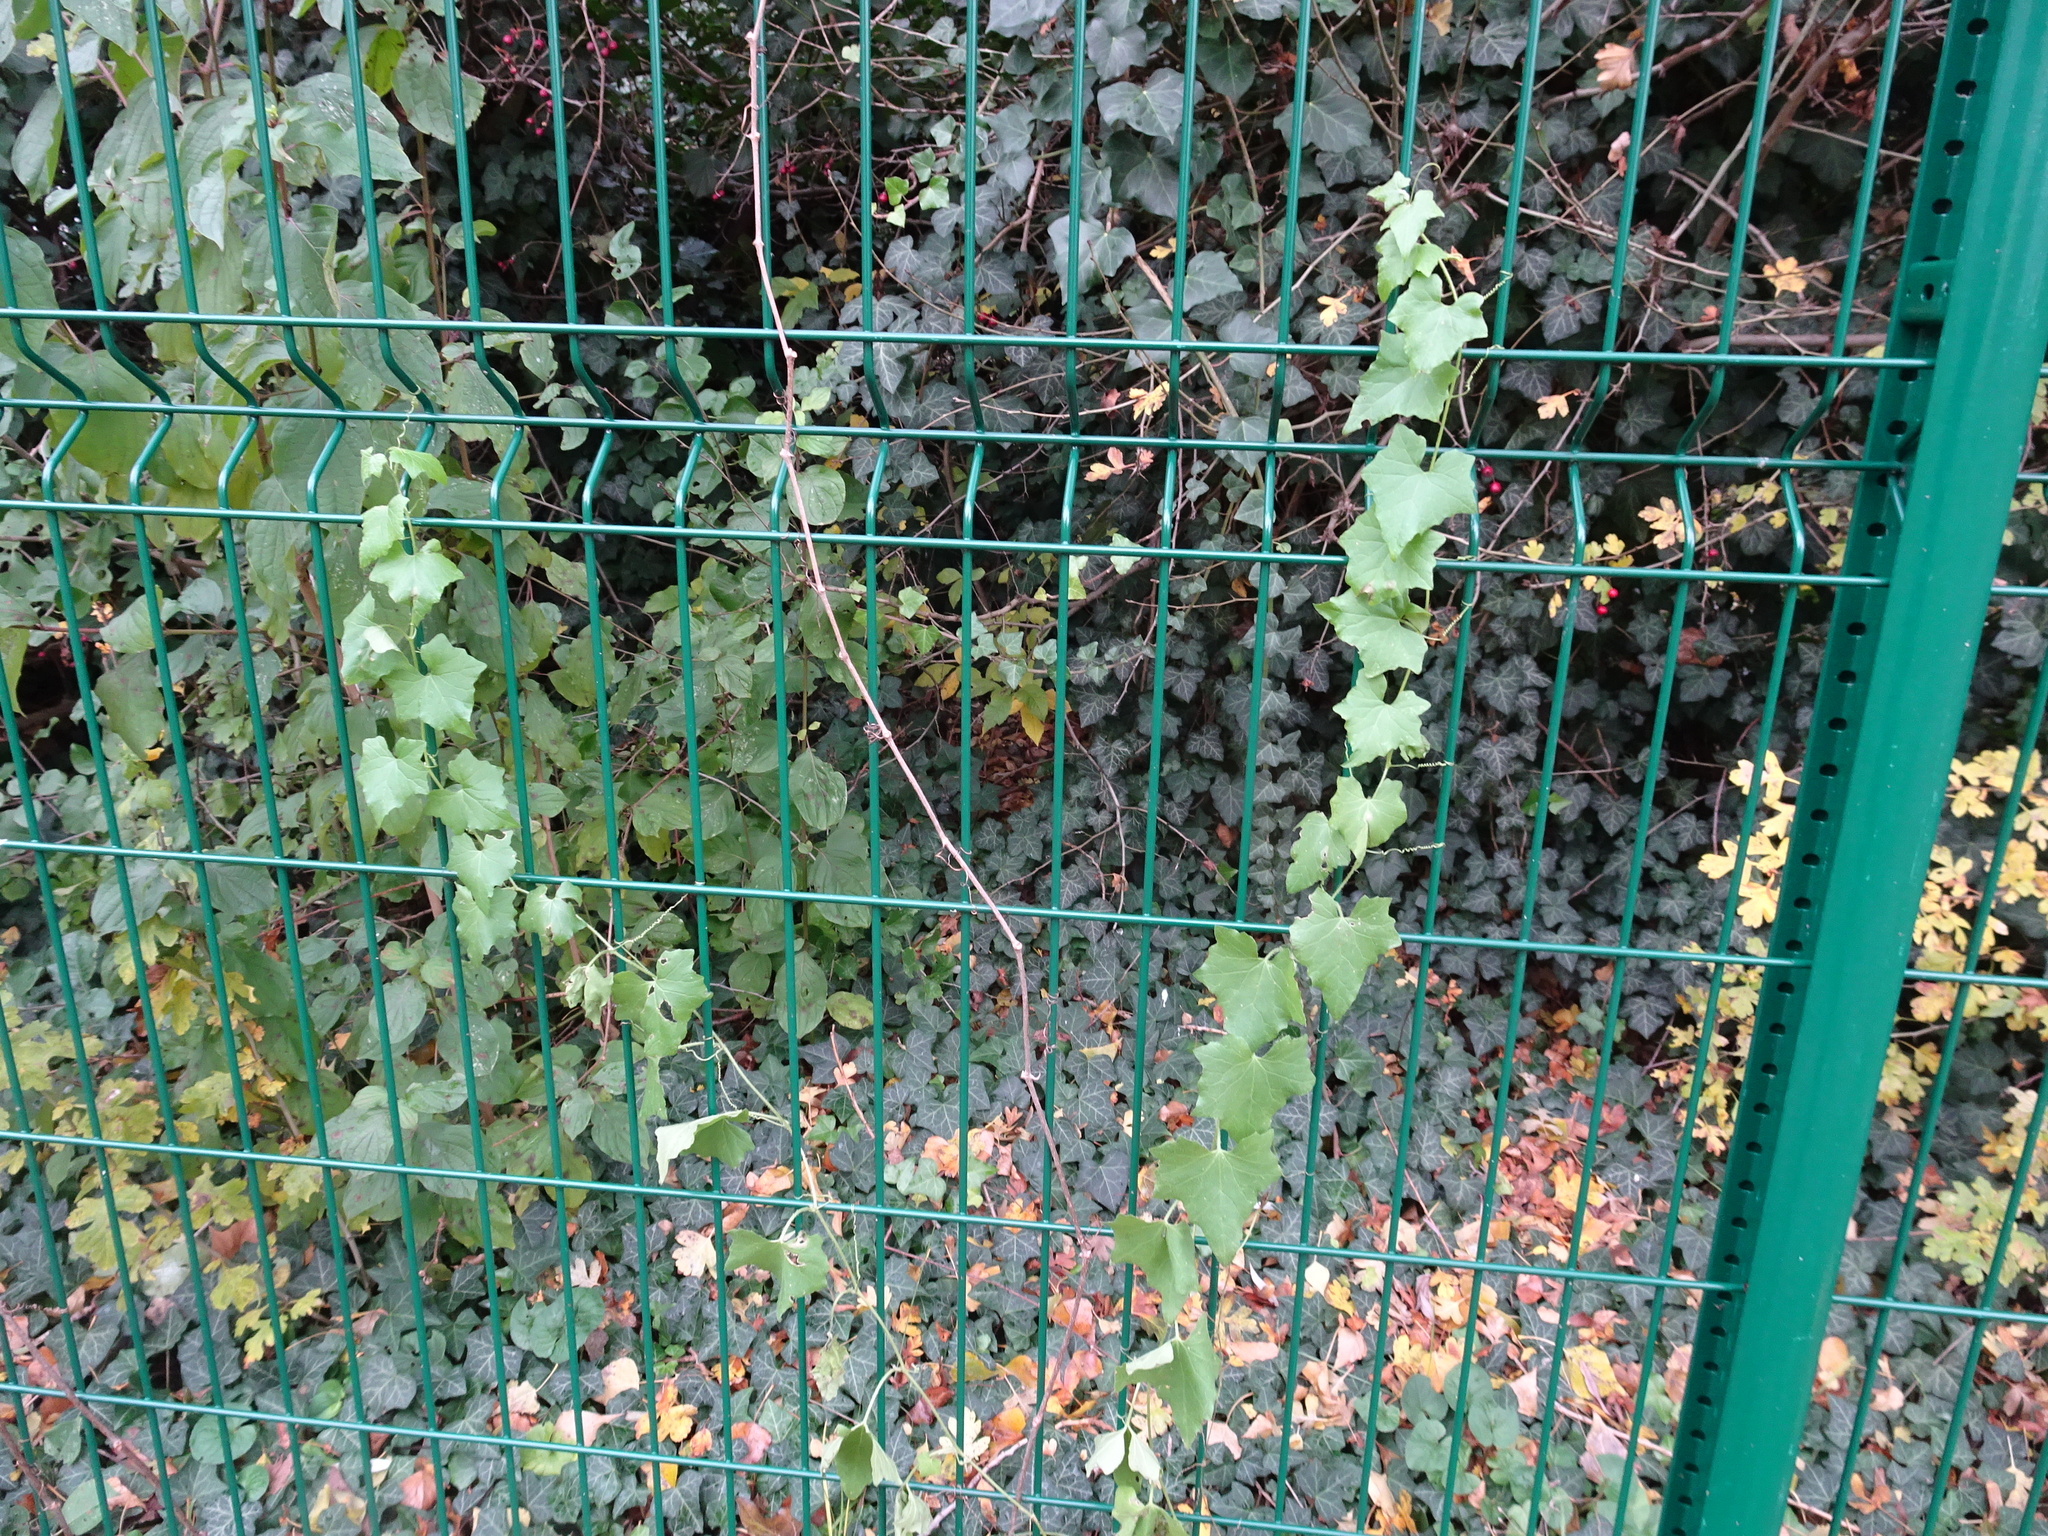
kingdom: Plantae
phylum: Tracheophyta
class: Magnoliopsida
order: Cucurbitales
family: Cucurbitaceae
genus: Bryonia
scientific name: Bryonia cretica
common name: Cretan bryony
